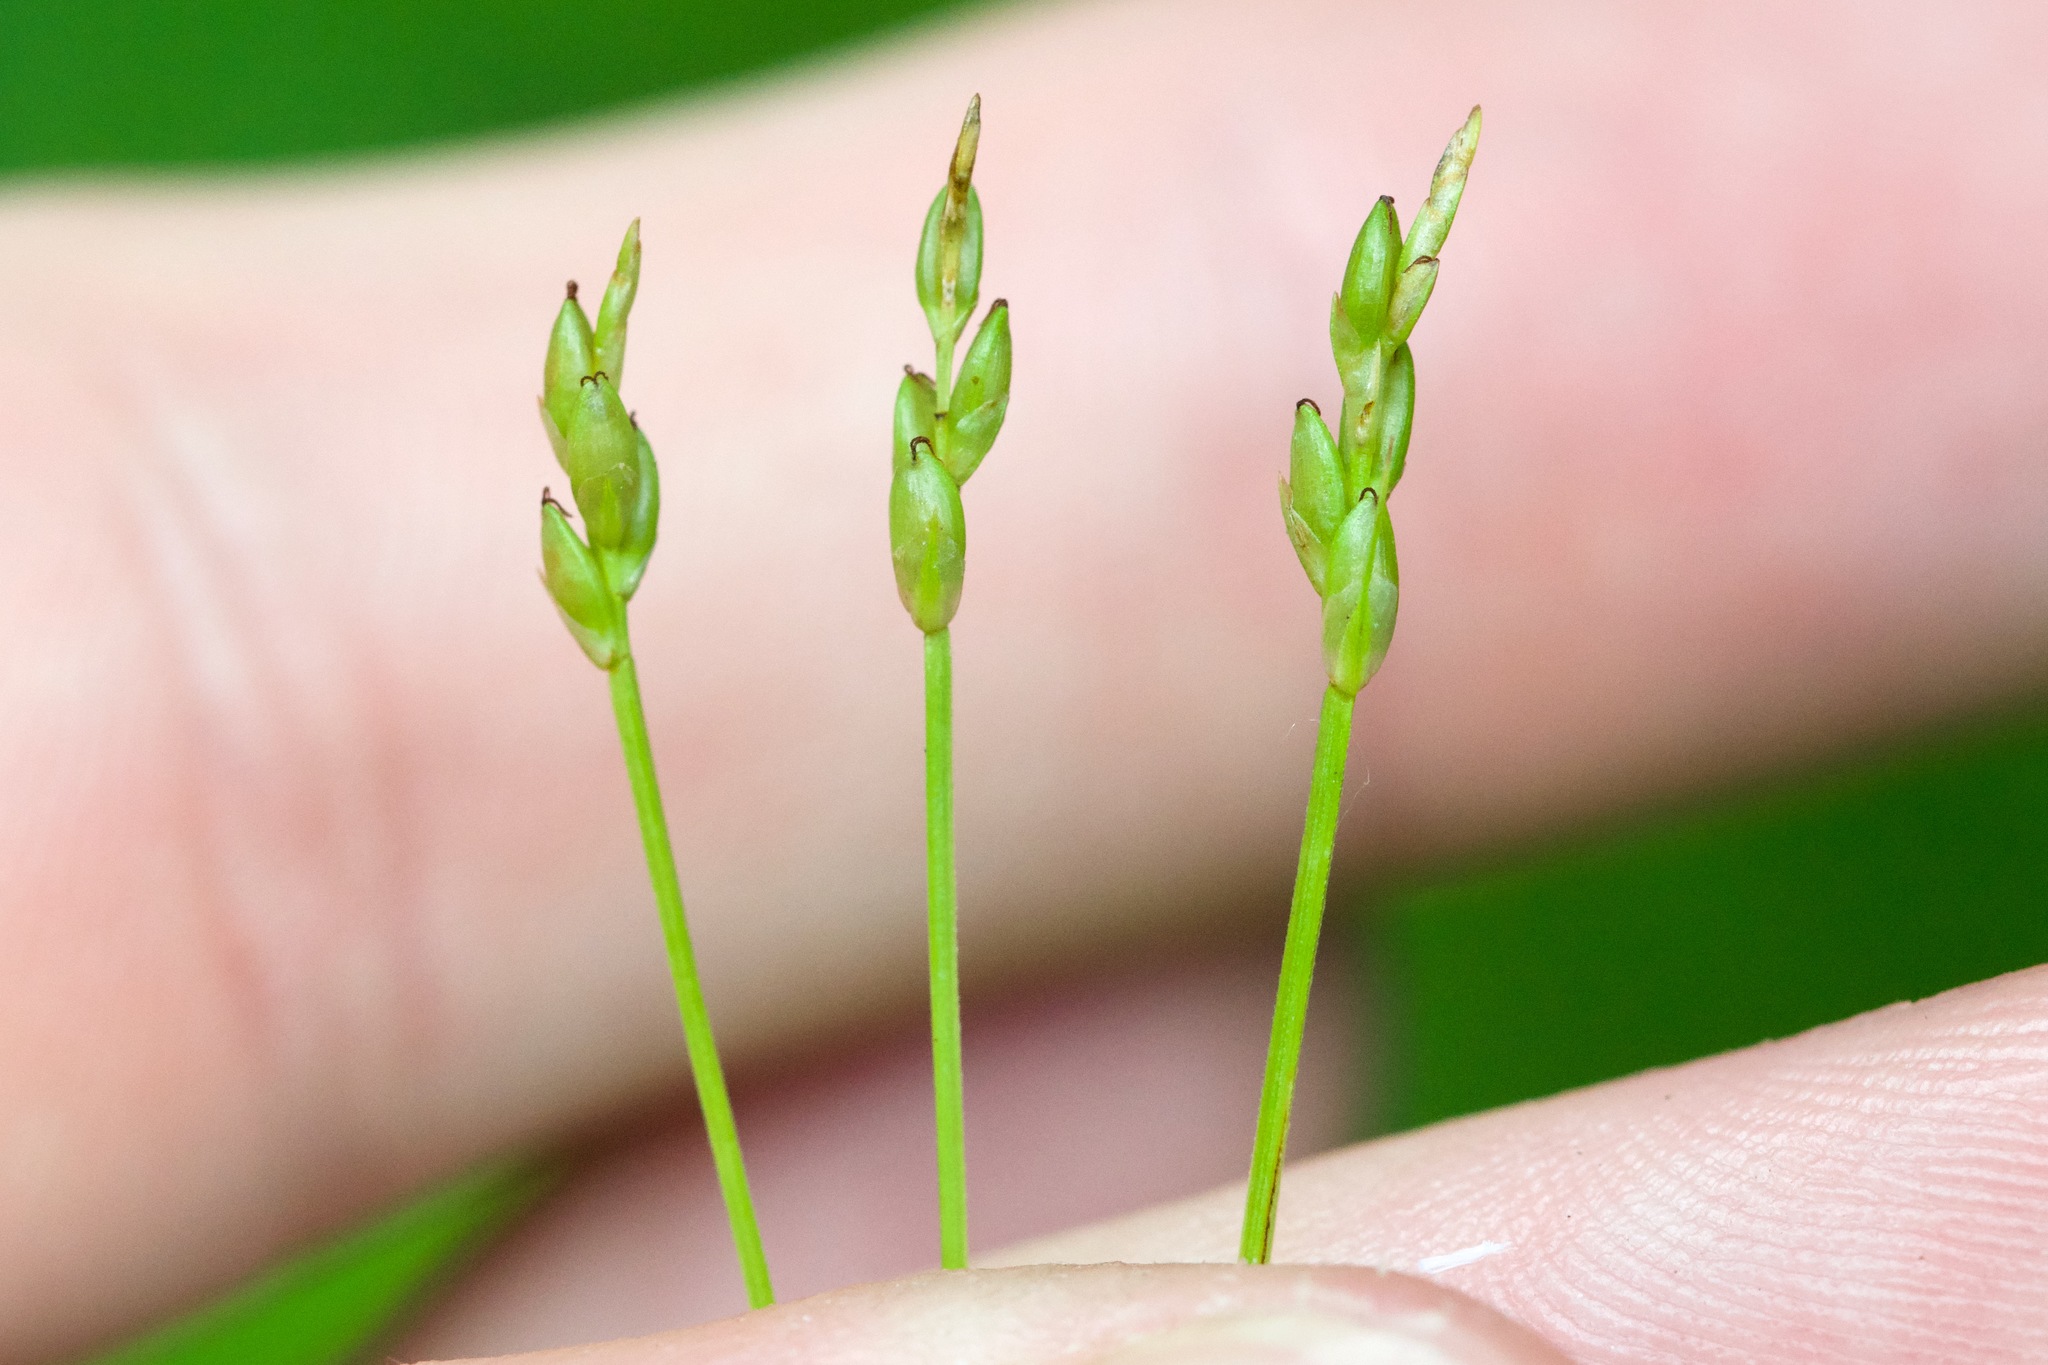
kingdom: Plantae
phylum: Tracheophyta
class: Liliopsida
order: Poales
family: Cyperaceae
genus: Carex
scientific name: Carex leptalea
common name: Bristly-stalked sedge
